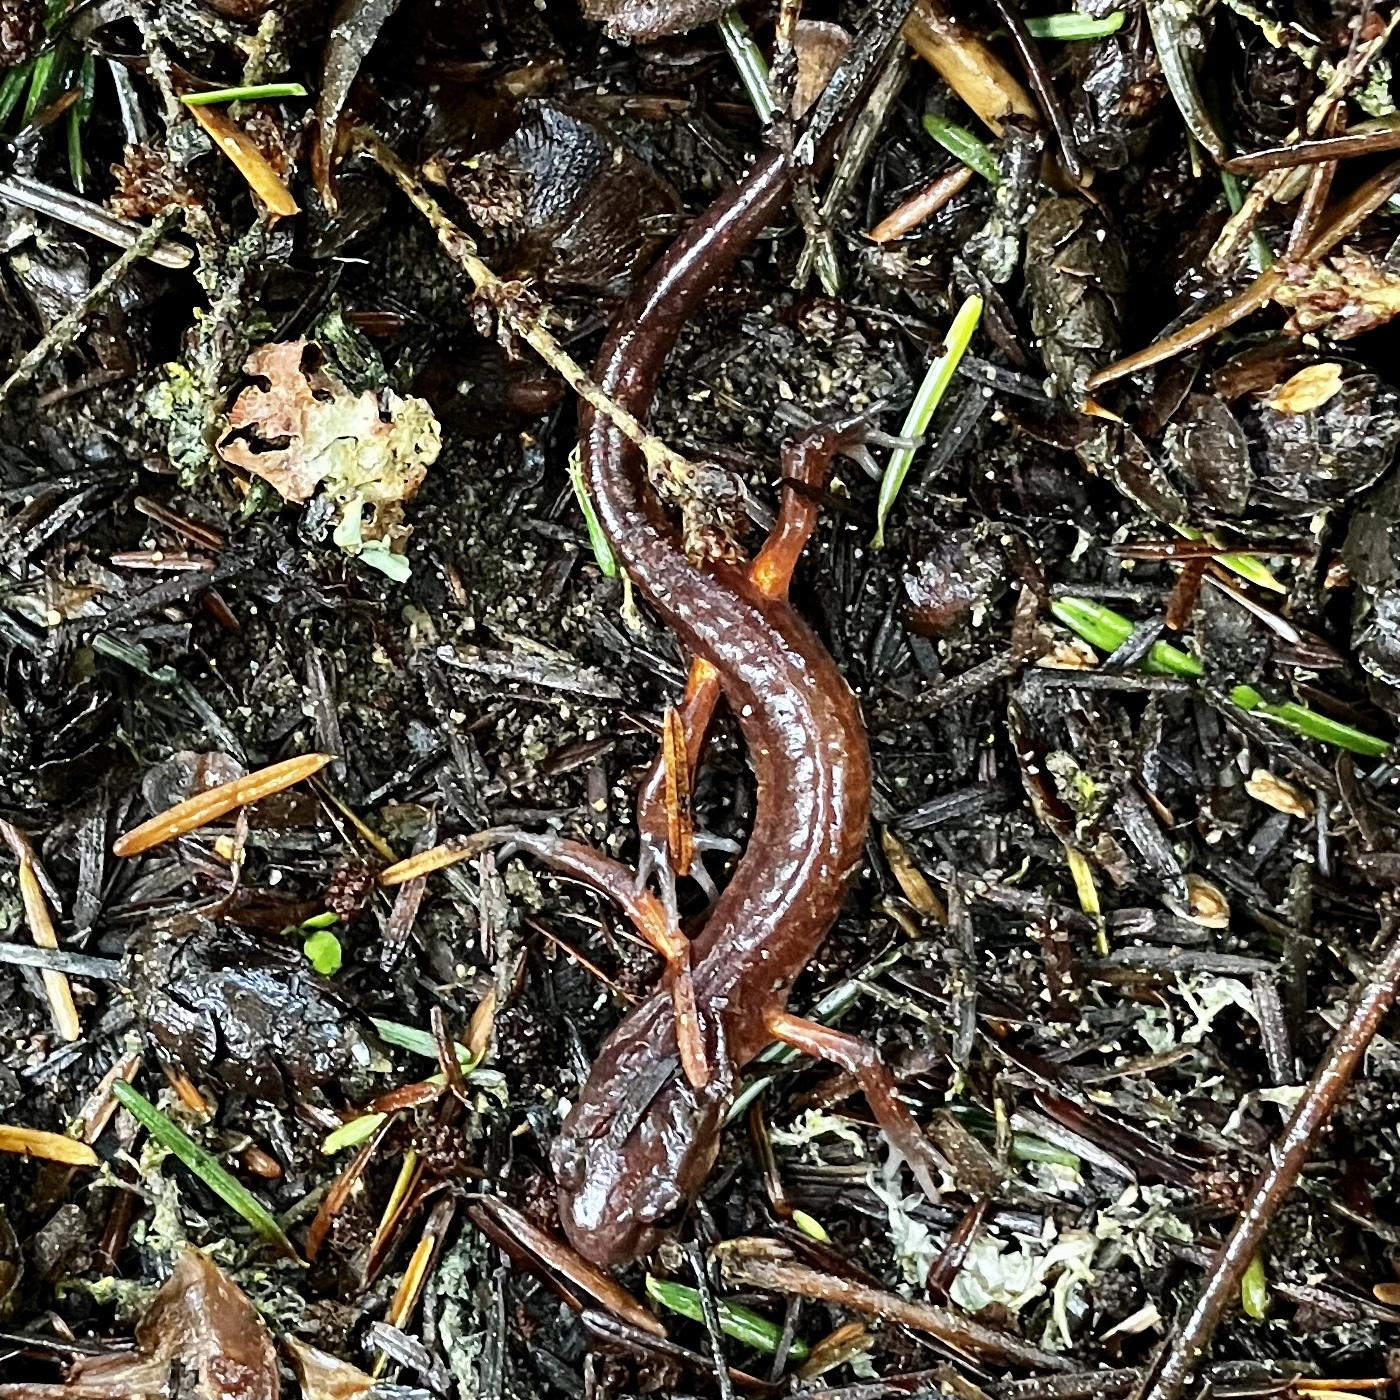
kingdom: Animalia
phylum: Chordata
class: Amphibia
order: Caudata
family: Plethodontidae
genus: Ensatina
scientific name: Ensatina eschscholtzii
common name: Ensatina
